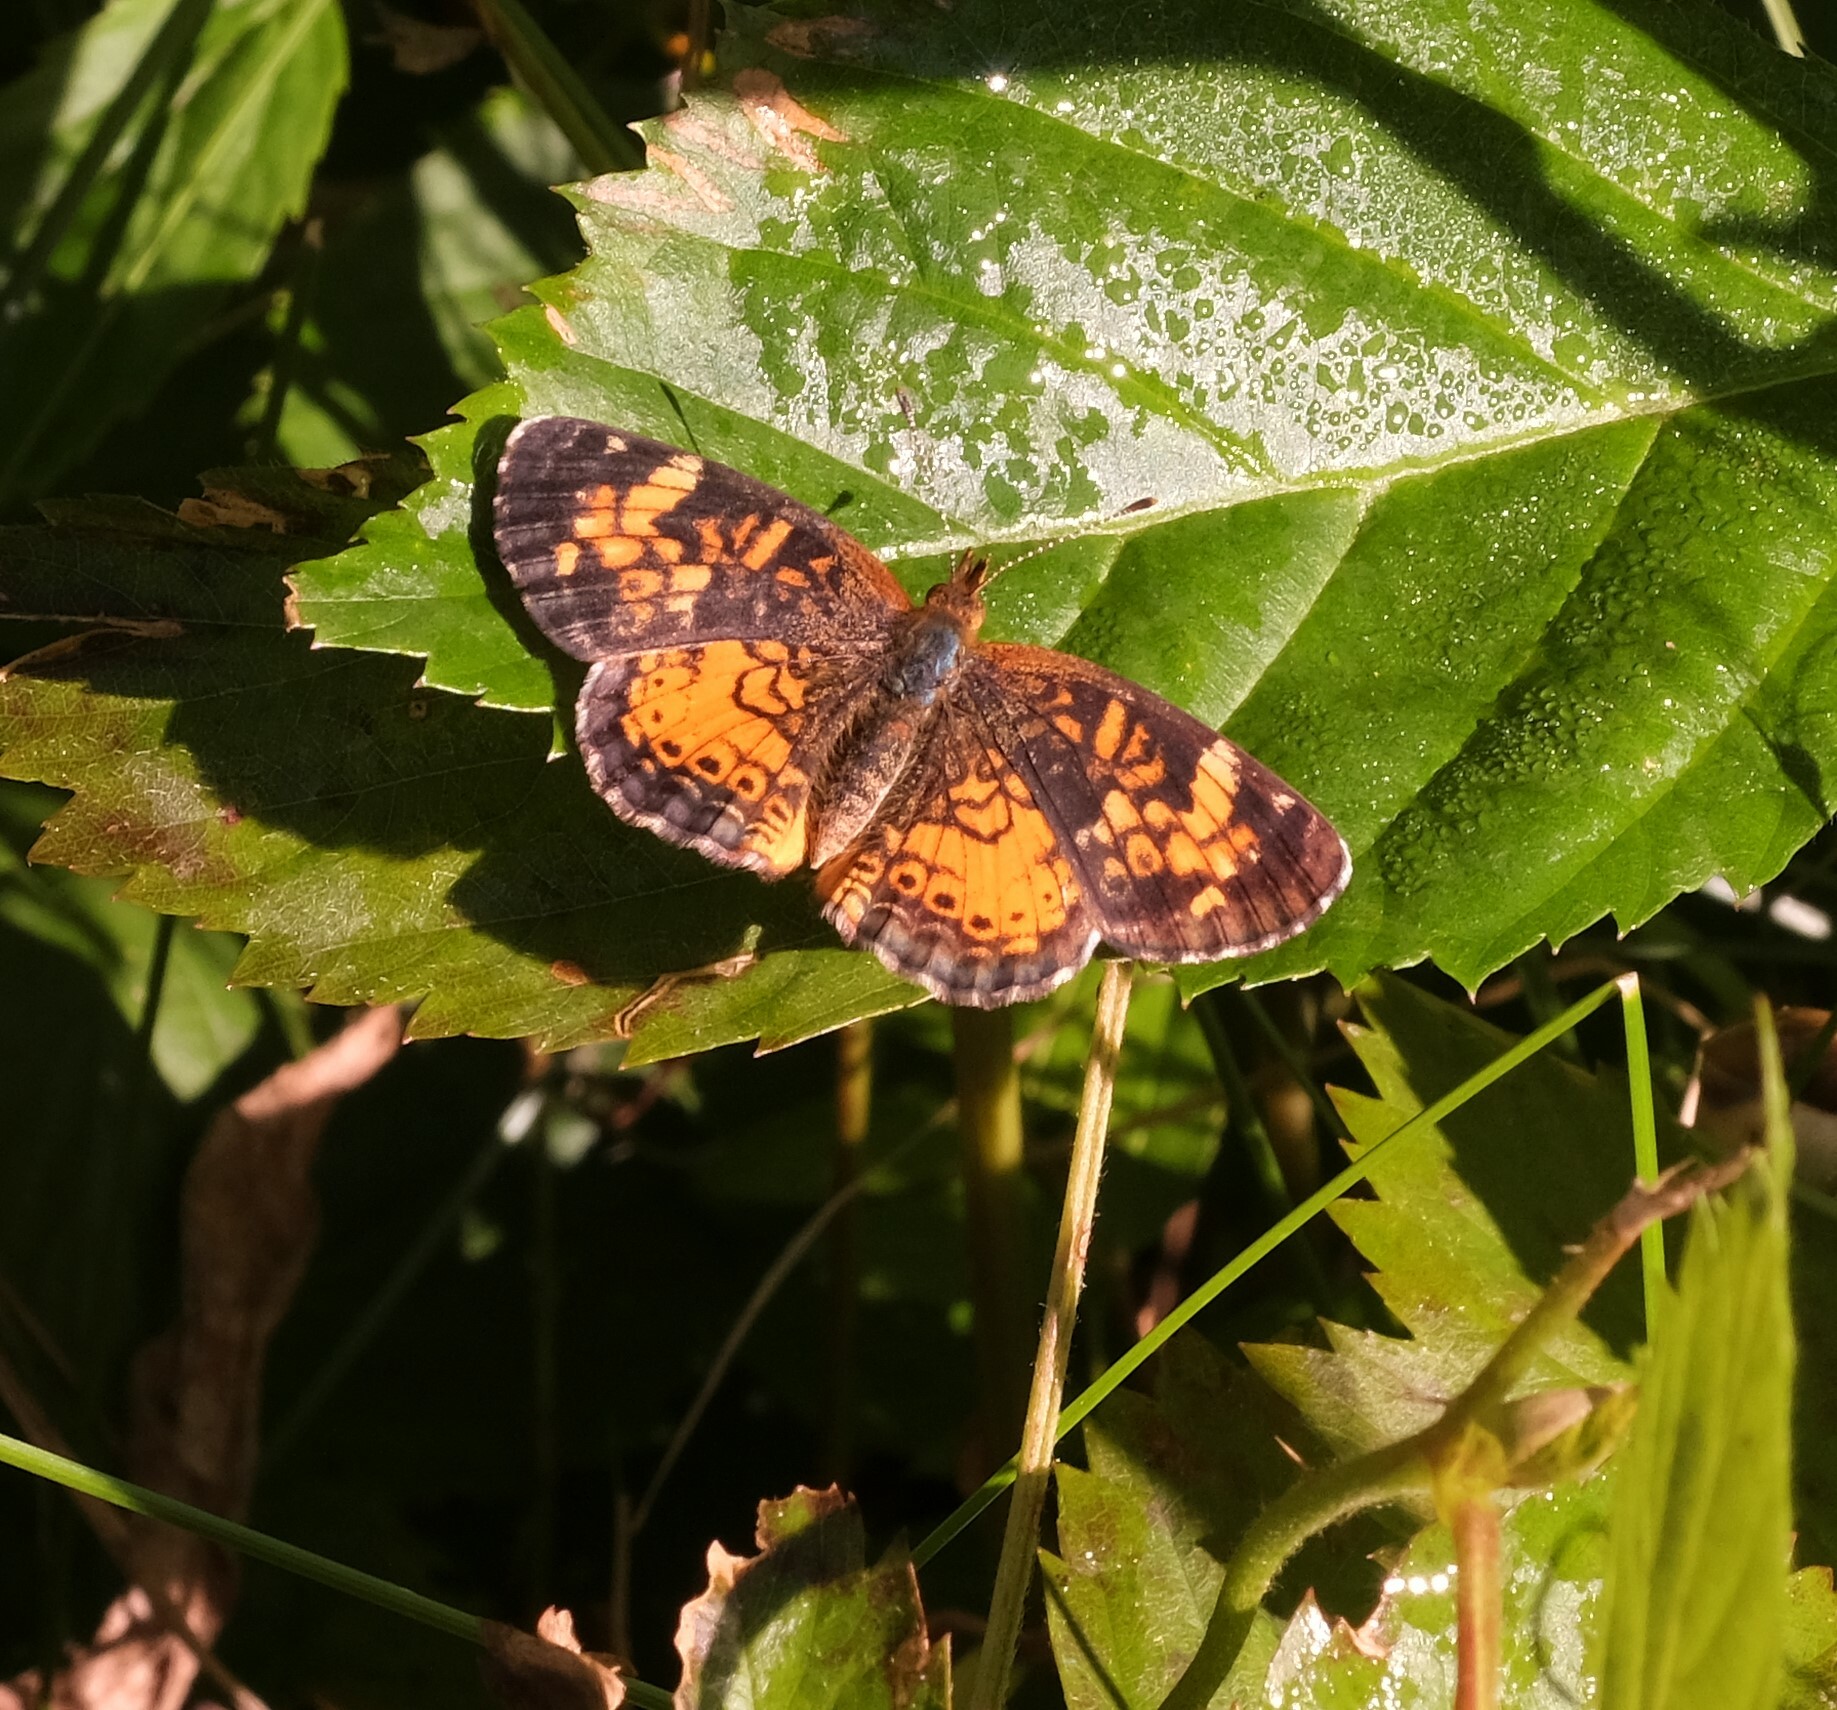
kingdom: Animalia
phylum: Arthropoda
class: Insecta
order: Lepidoptera
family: Nymphalidae
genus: Phyciodes
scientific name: Phyciodes tharos
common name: Pearl crescent
